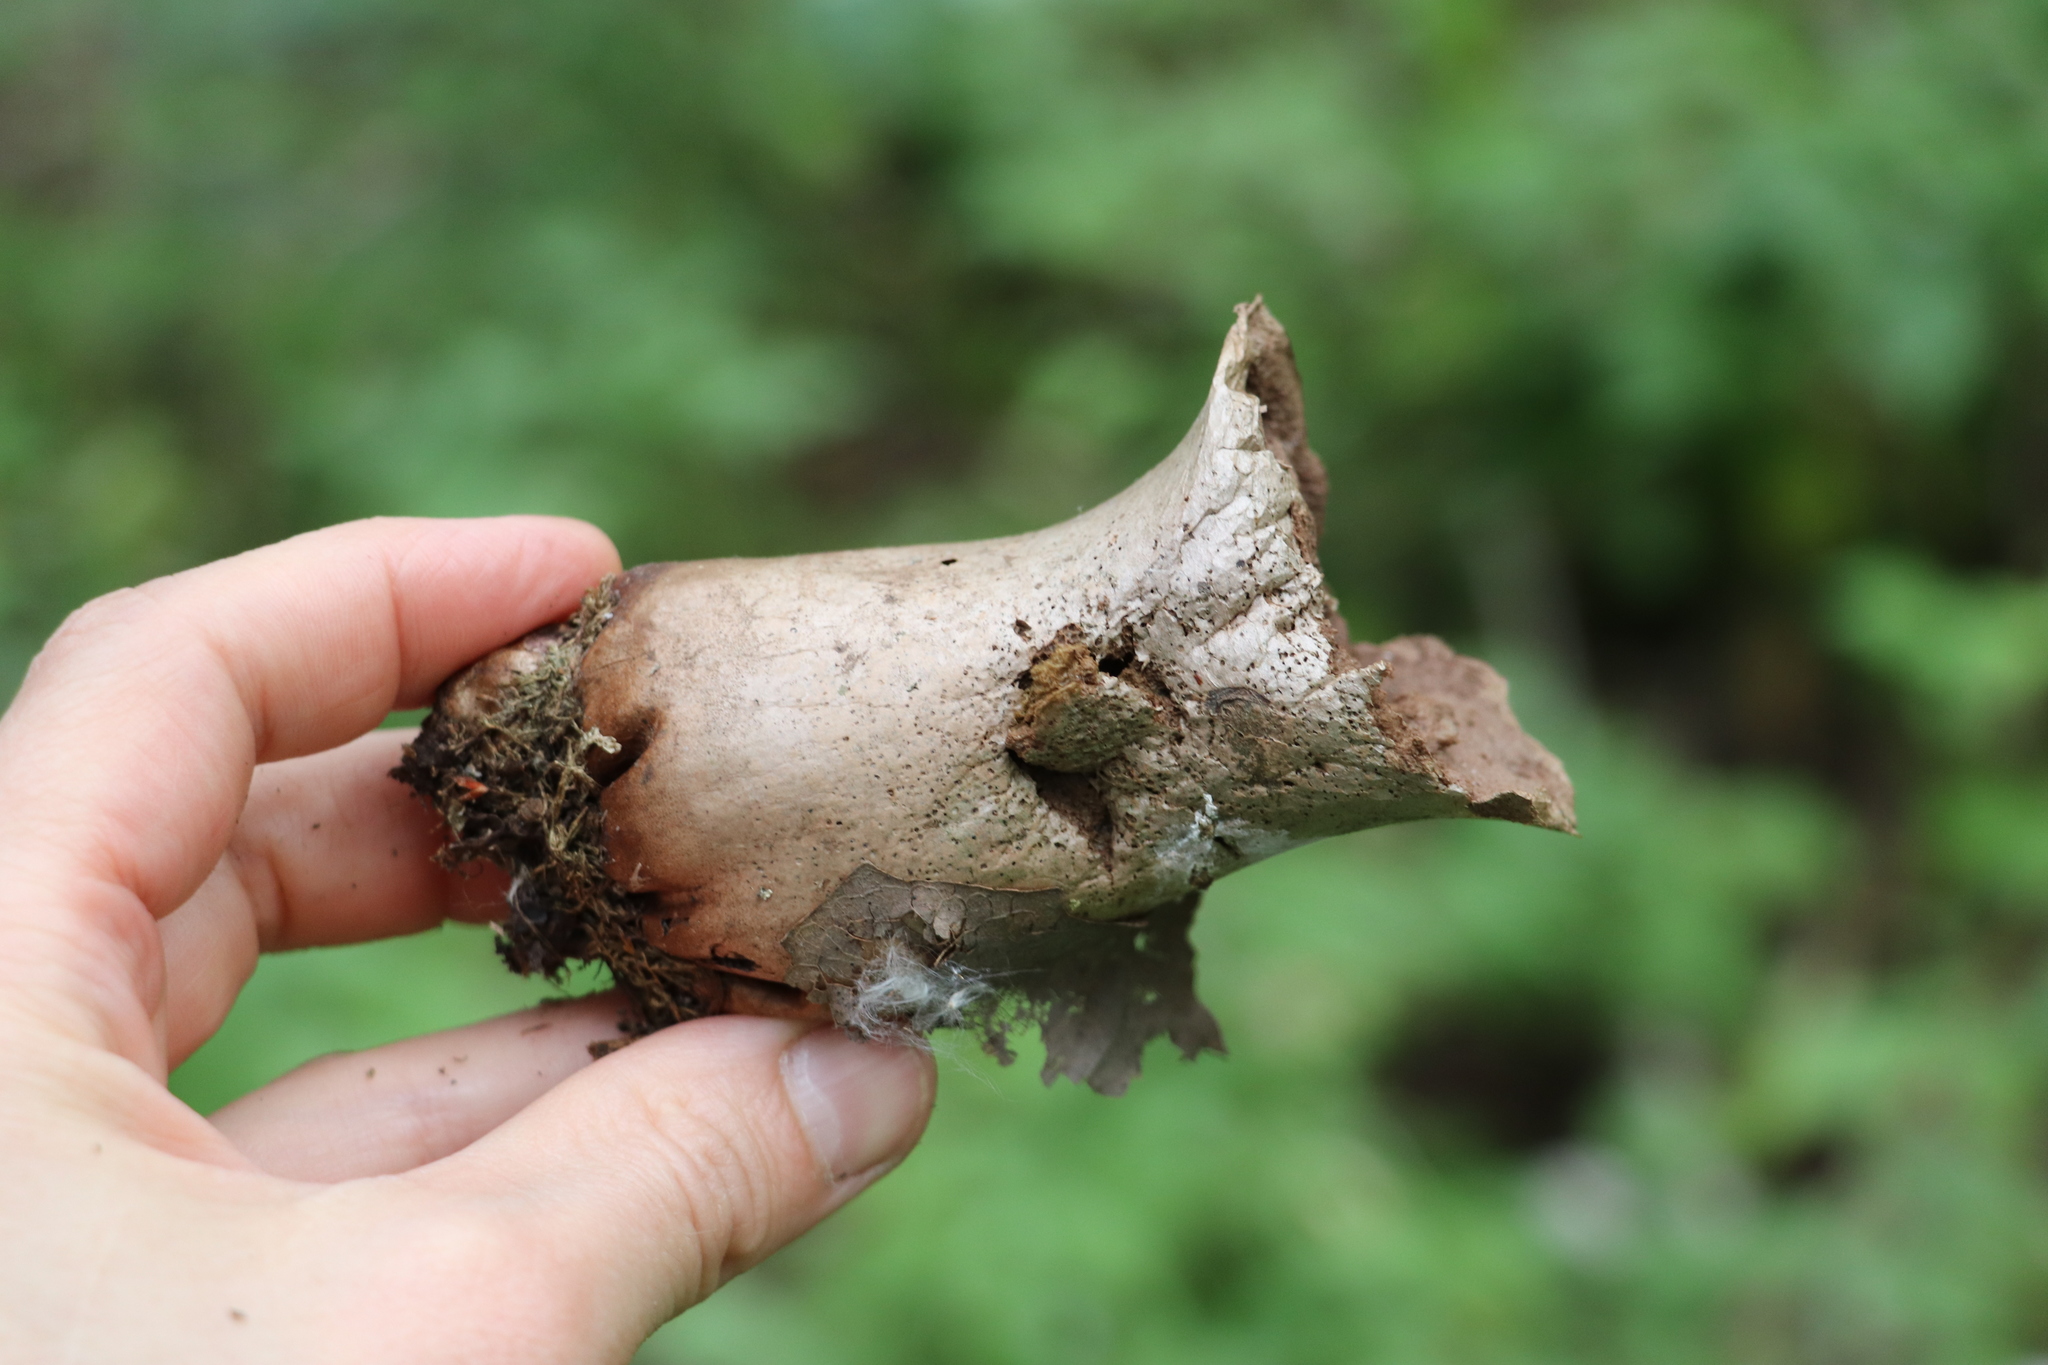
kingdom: Fungi
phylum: Basidiomycota
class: Agaricomycetes
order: Agaricales
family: Lycoperdaceae
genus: Lycoperdon
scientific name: Lycoperdon excipuliforme
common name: Pestle puffball
